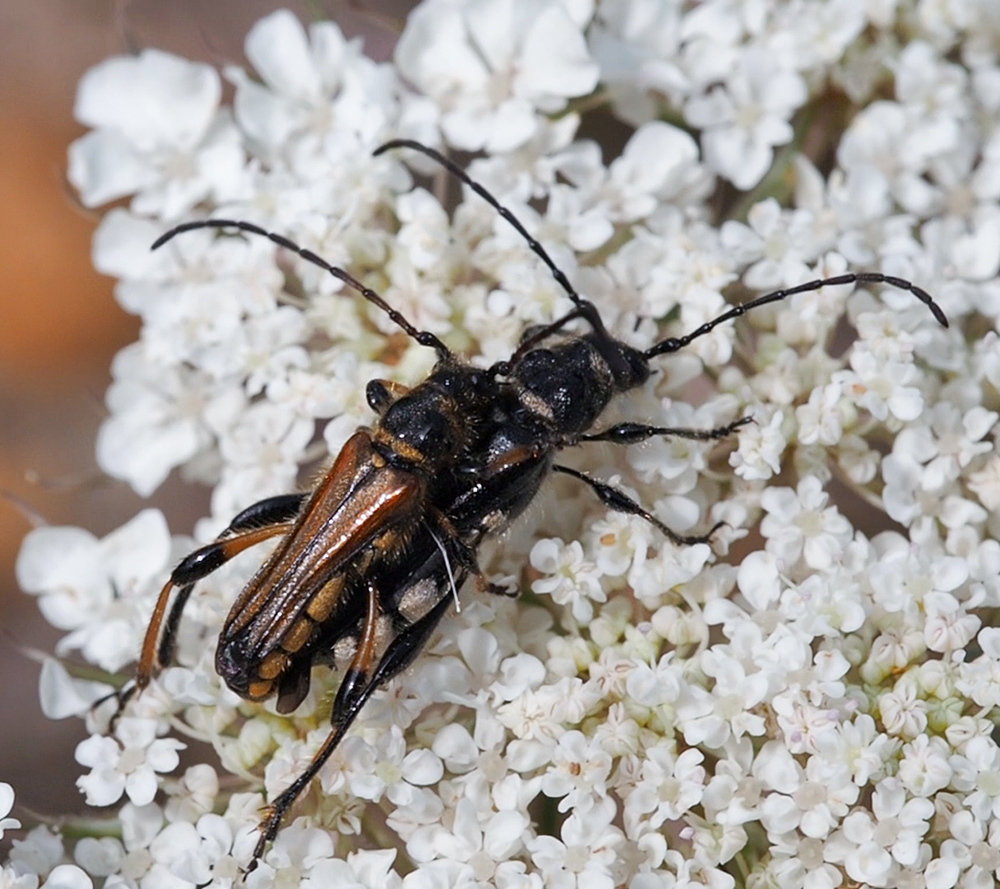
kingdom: Animalia
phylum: Arthropoda
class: Insecta
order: Coleoptera
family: Cerambycidae
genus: Stenopterus
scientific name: Stenopterus ater
